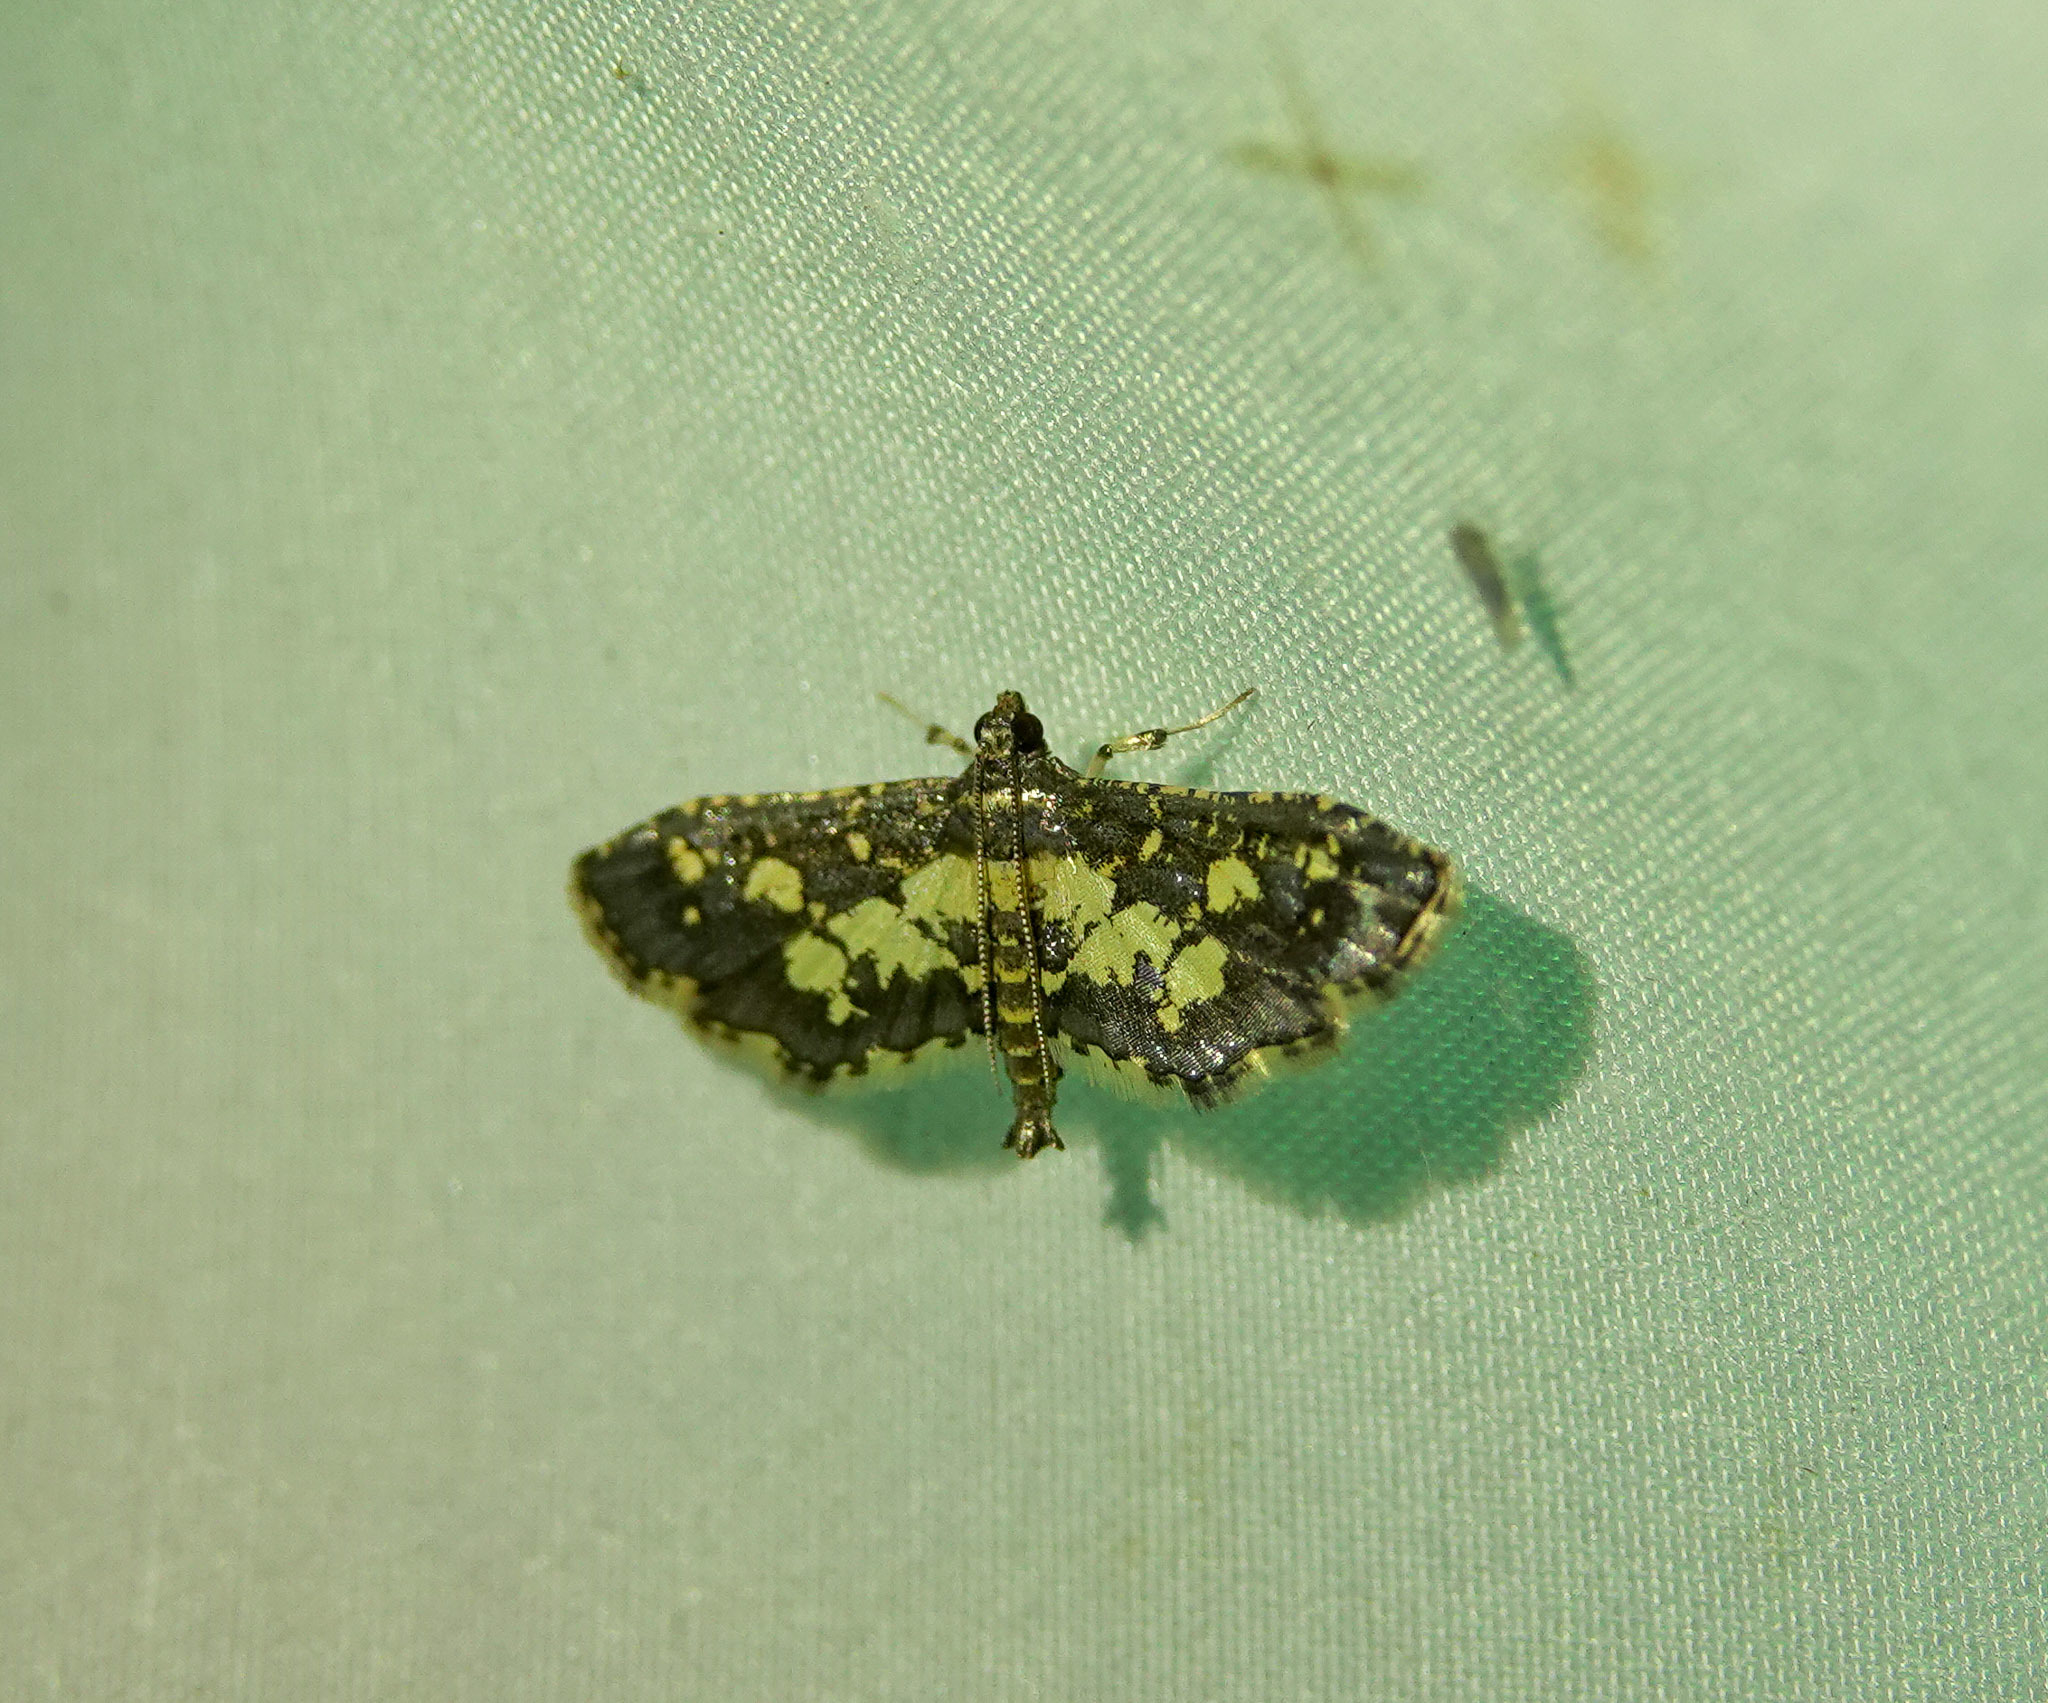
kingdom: Animalia
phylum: Arthropoda
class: Insecta
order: Lepidoptera
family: Crambidae
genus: Eurrhyparodes
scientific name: Eurrhyparodes bracteolalis
